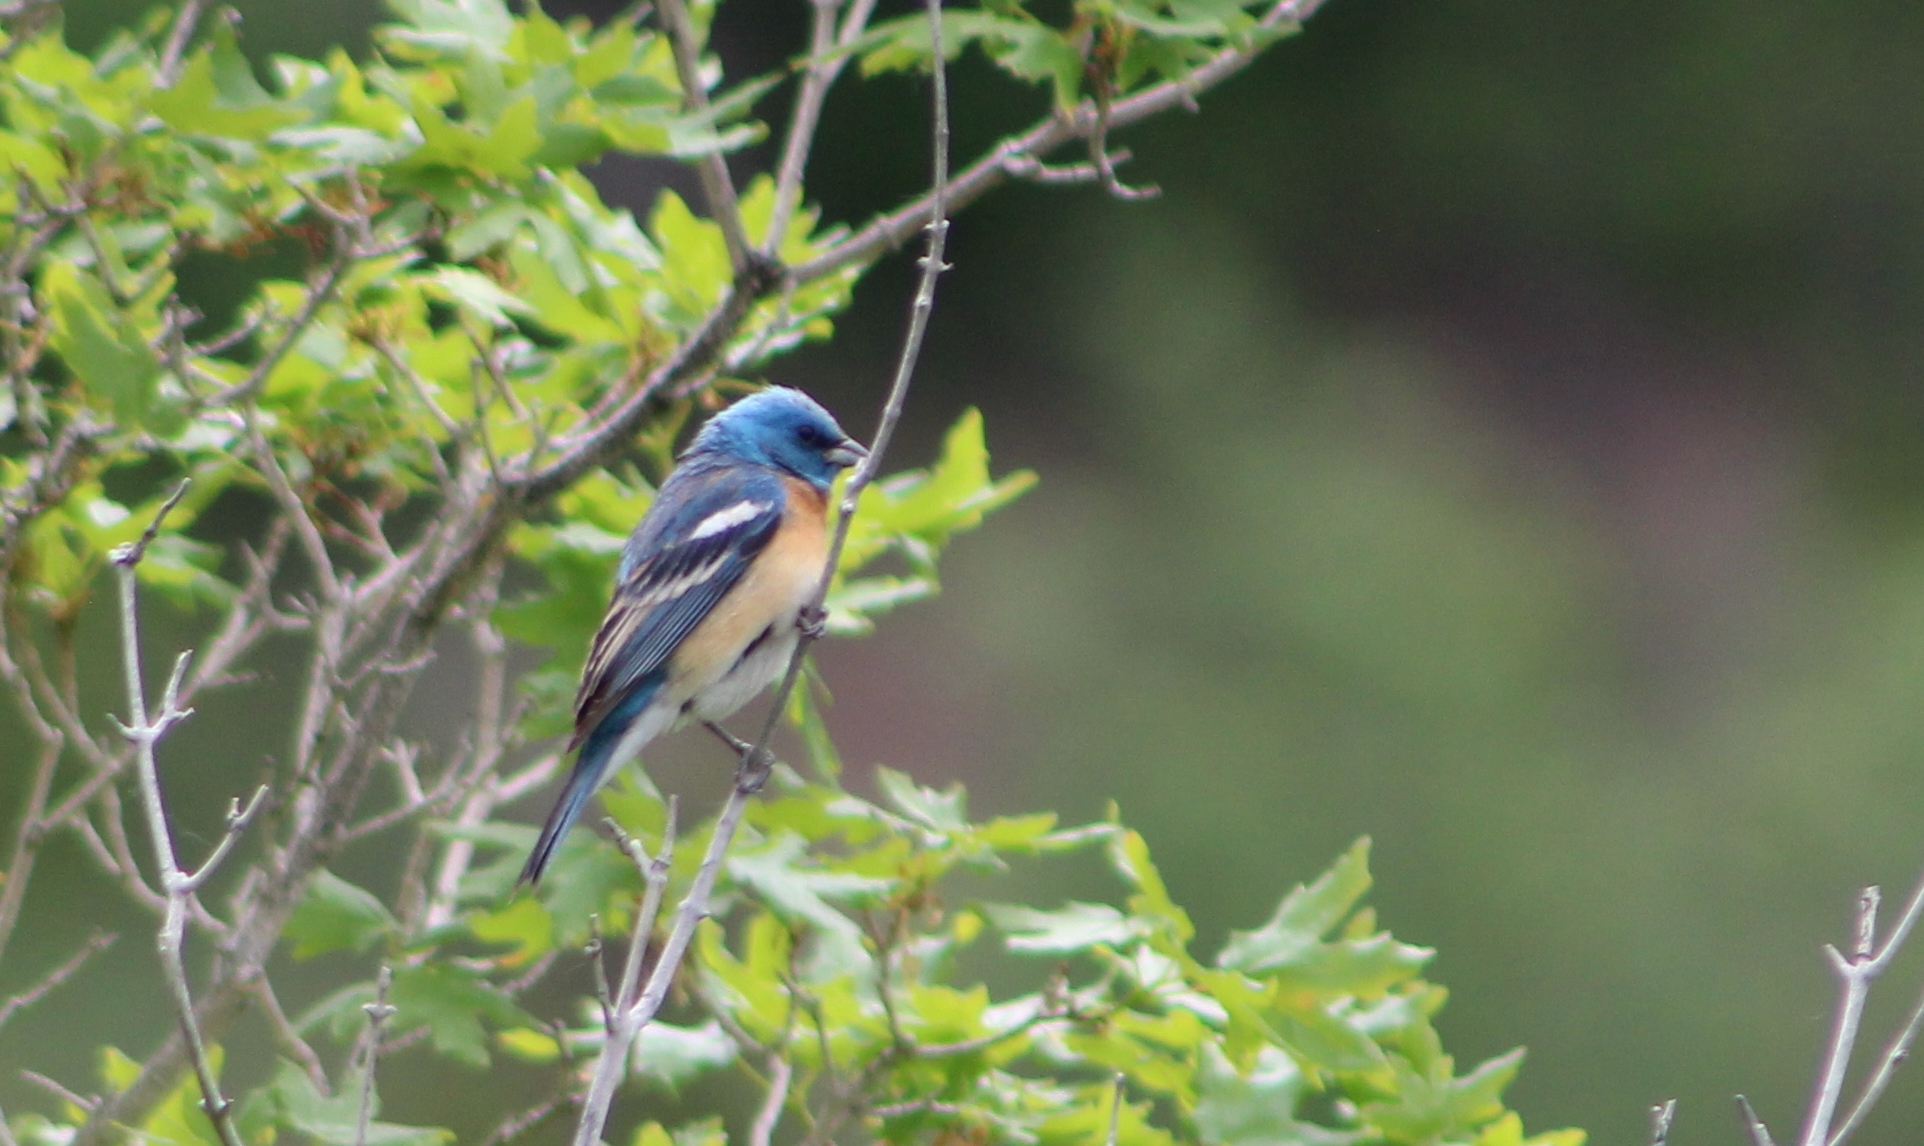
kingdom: Animalia
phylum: Chordata
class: Aves
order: Passeriformes
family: Cardinalidae
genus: Passerina
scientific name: Passerina amoena
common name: Lazuli bunting
